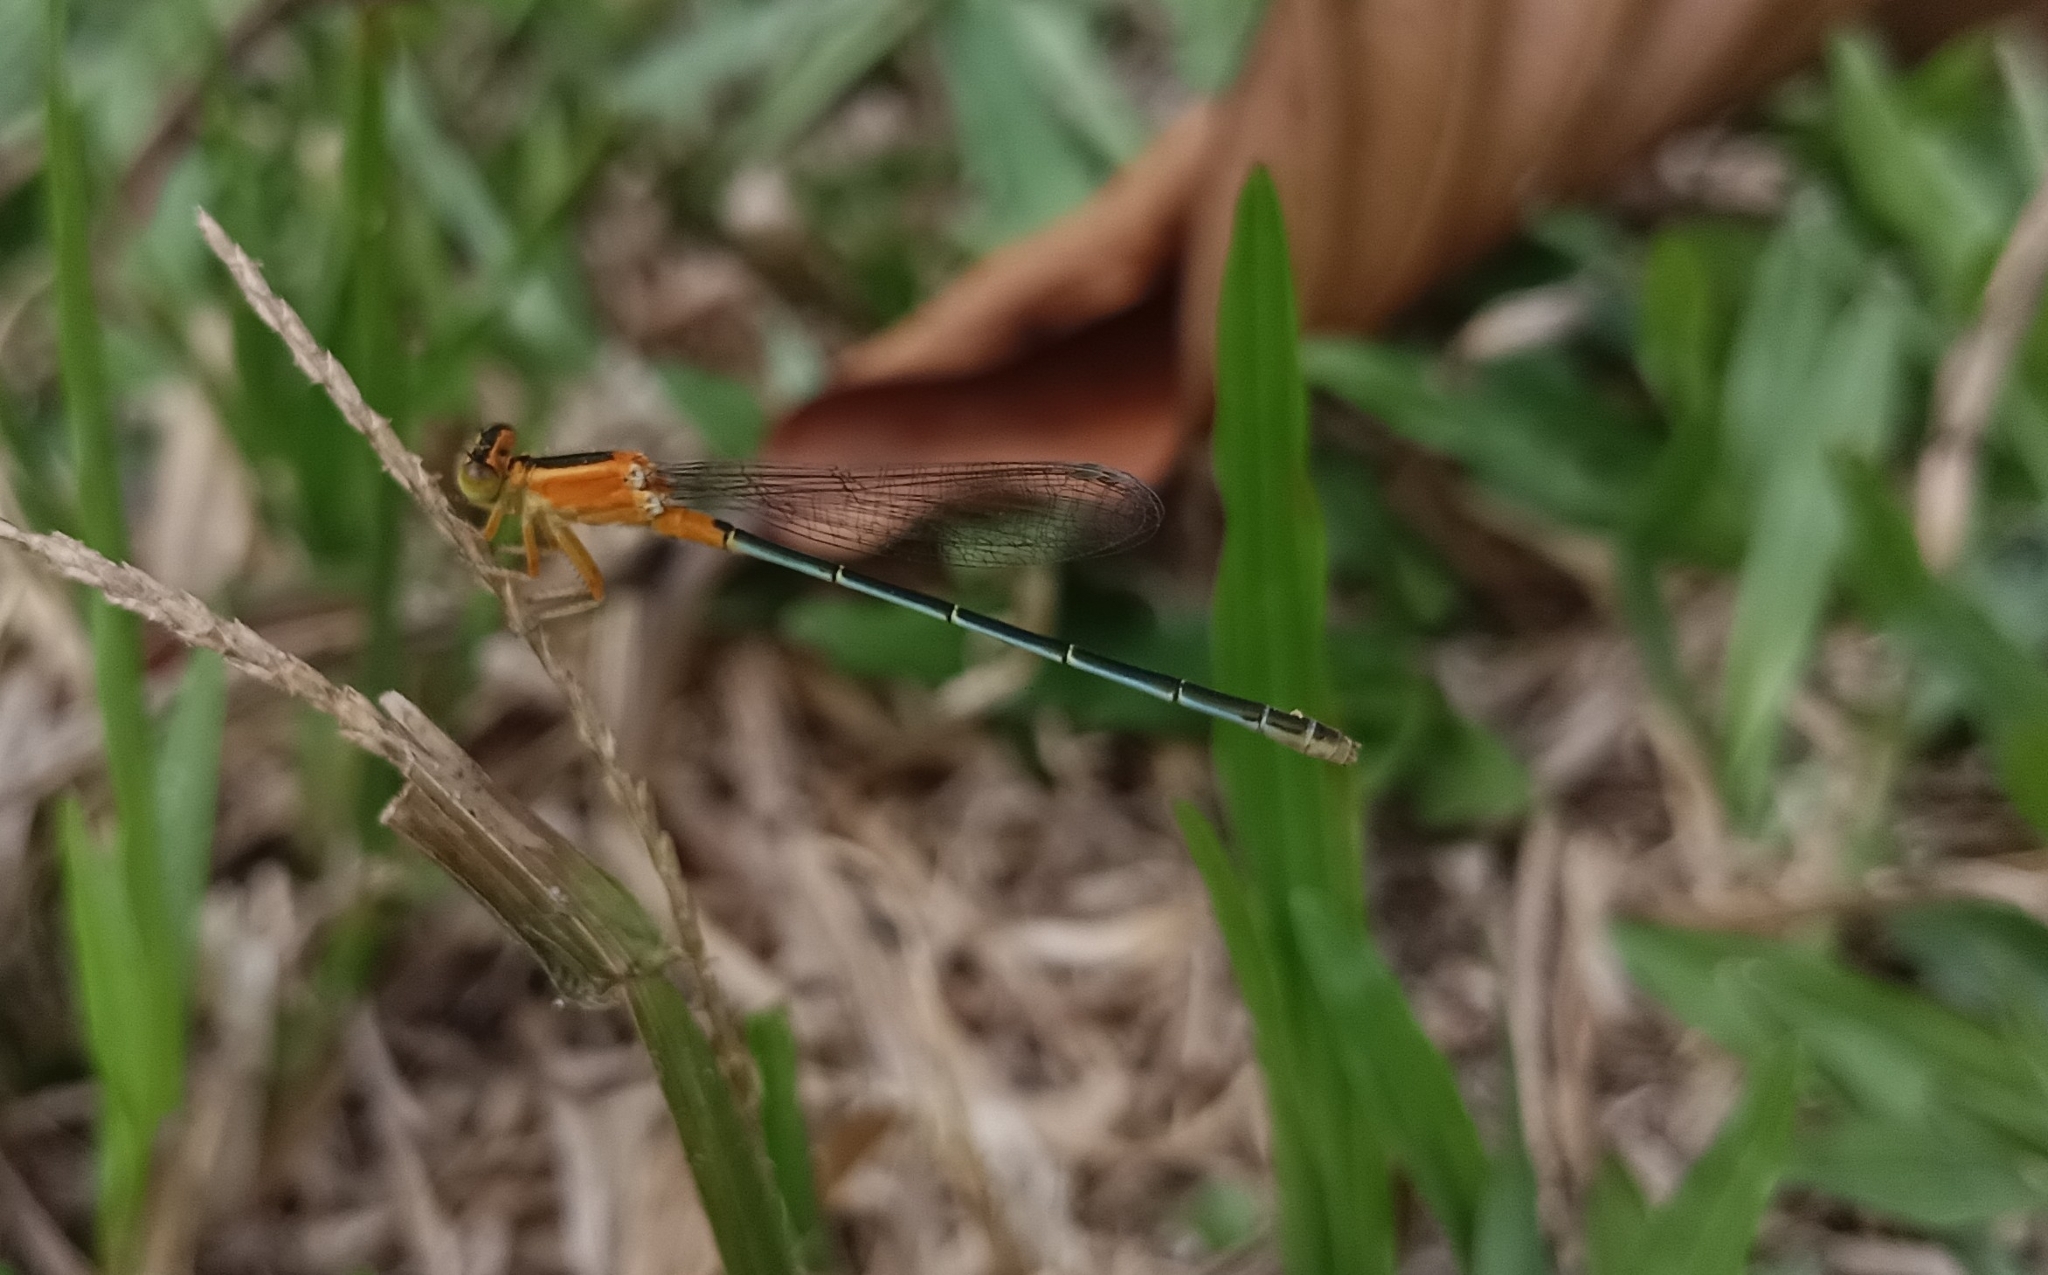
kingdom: Animalia
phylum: Arthropoda
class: Insecta
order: Odonata
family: Coenagrionidae
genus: Ischnura
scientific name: Ischnura senegalensis
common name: Tropical bluetail
